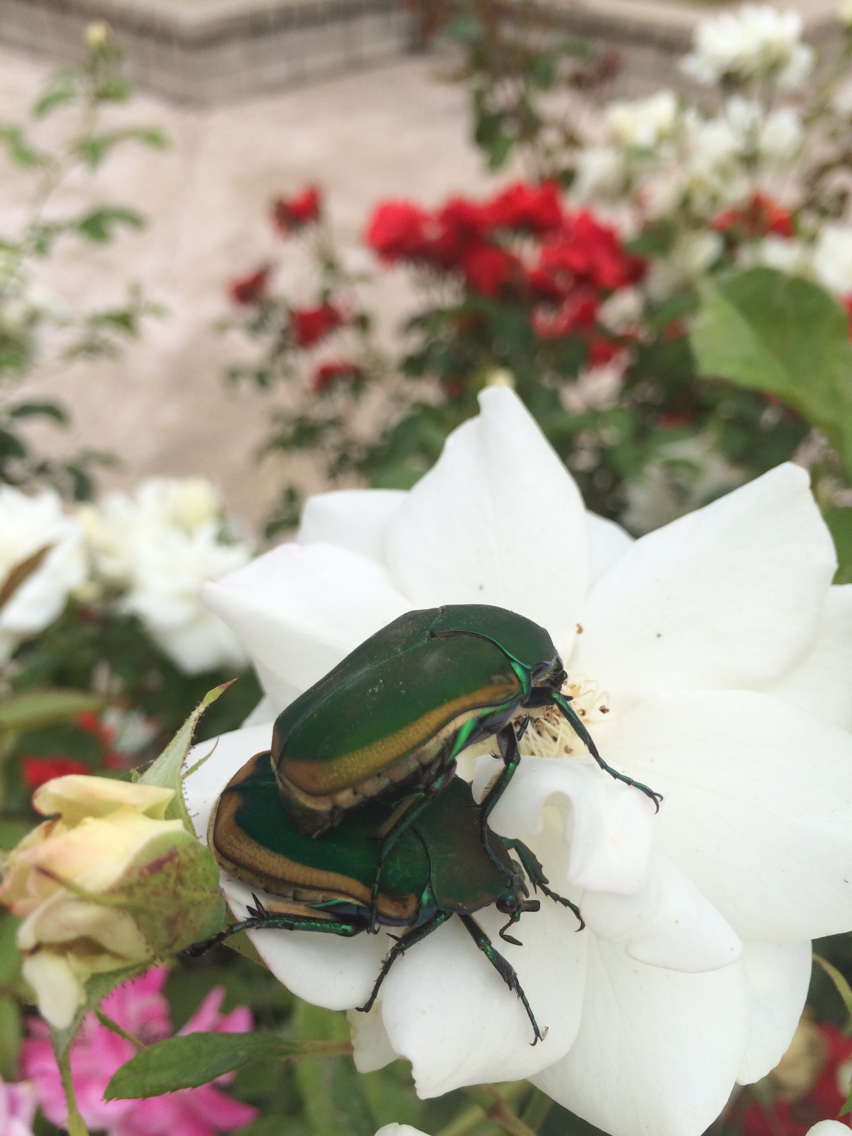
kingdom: Animalia
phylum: Arthropoda
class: Insecta
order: Coleoptera
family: Scarabaeidae
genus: Cotinis
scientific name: Cotinis mutabilis
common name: Figeater beetle
